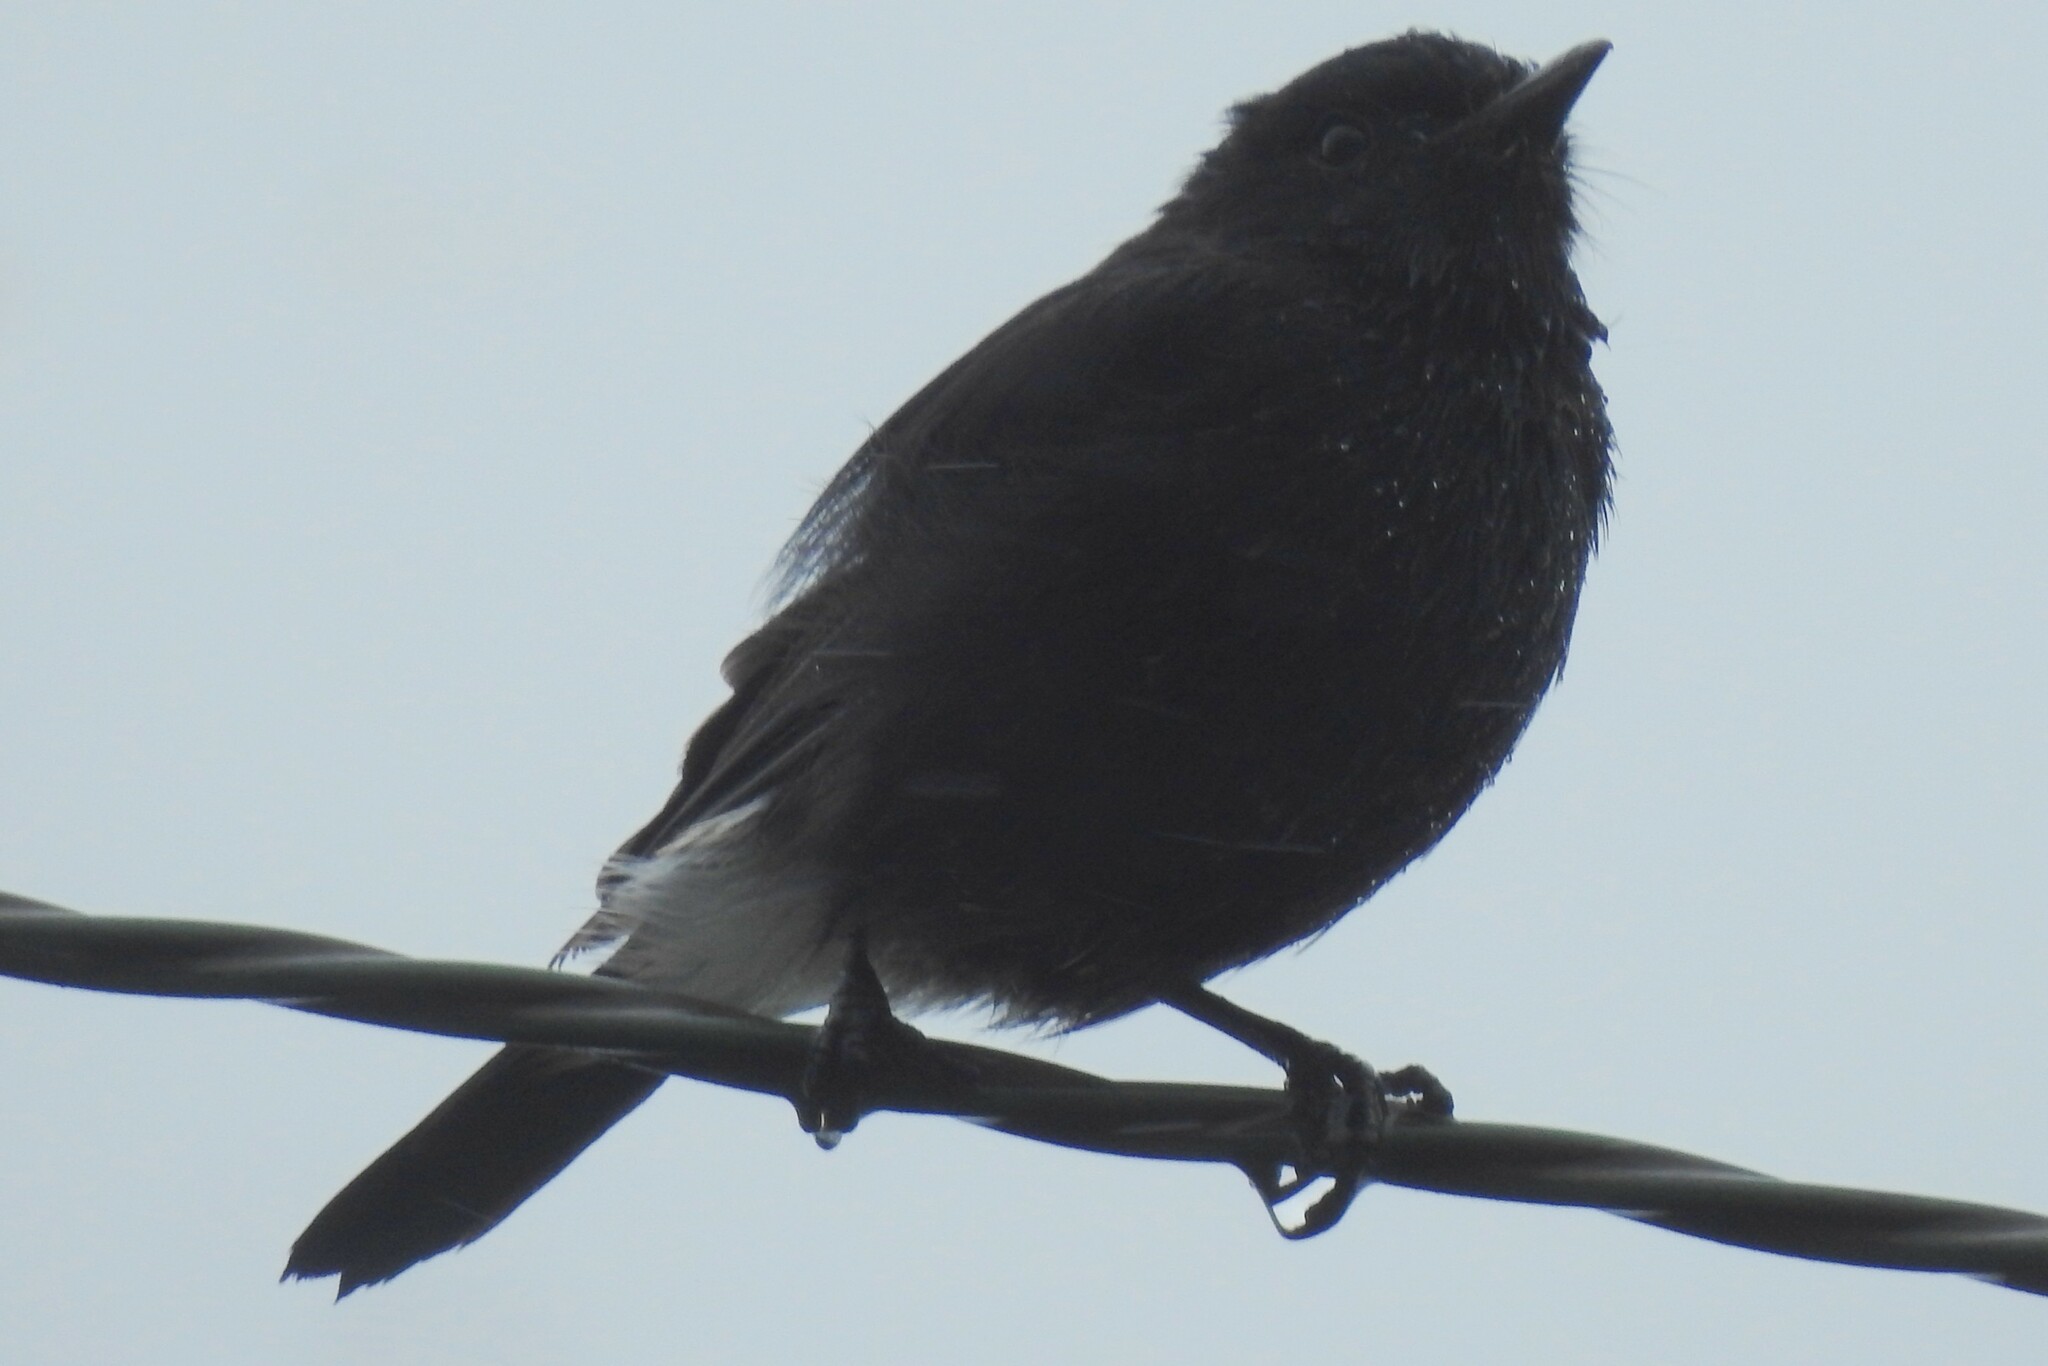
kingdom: Animalia
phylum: Chordata
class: Aves
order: Passeriformes
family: Muscicapidae
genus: Saxicola
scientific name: Saxicola caprata
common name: Pied bush chat
